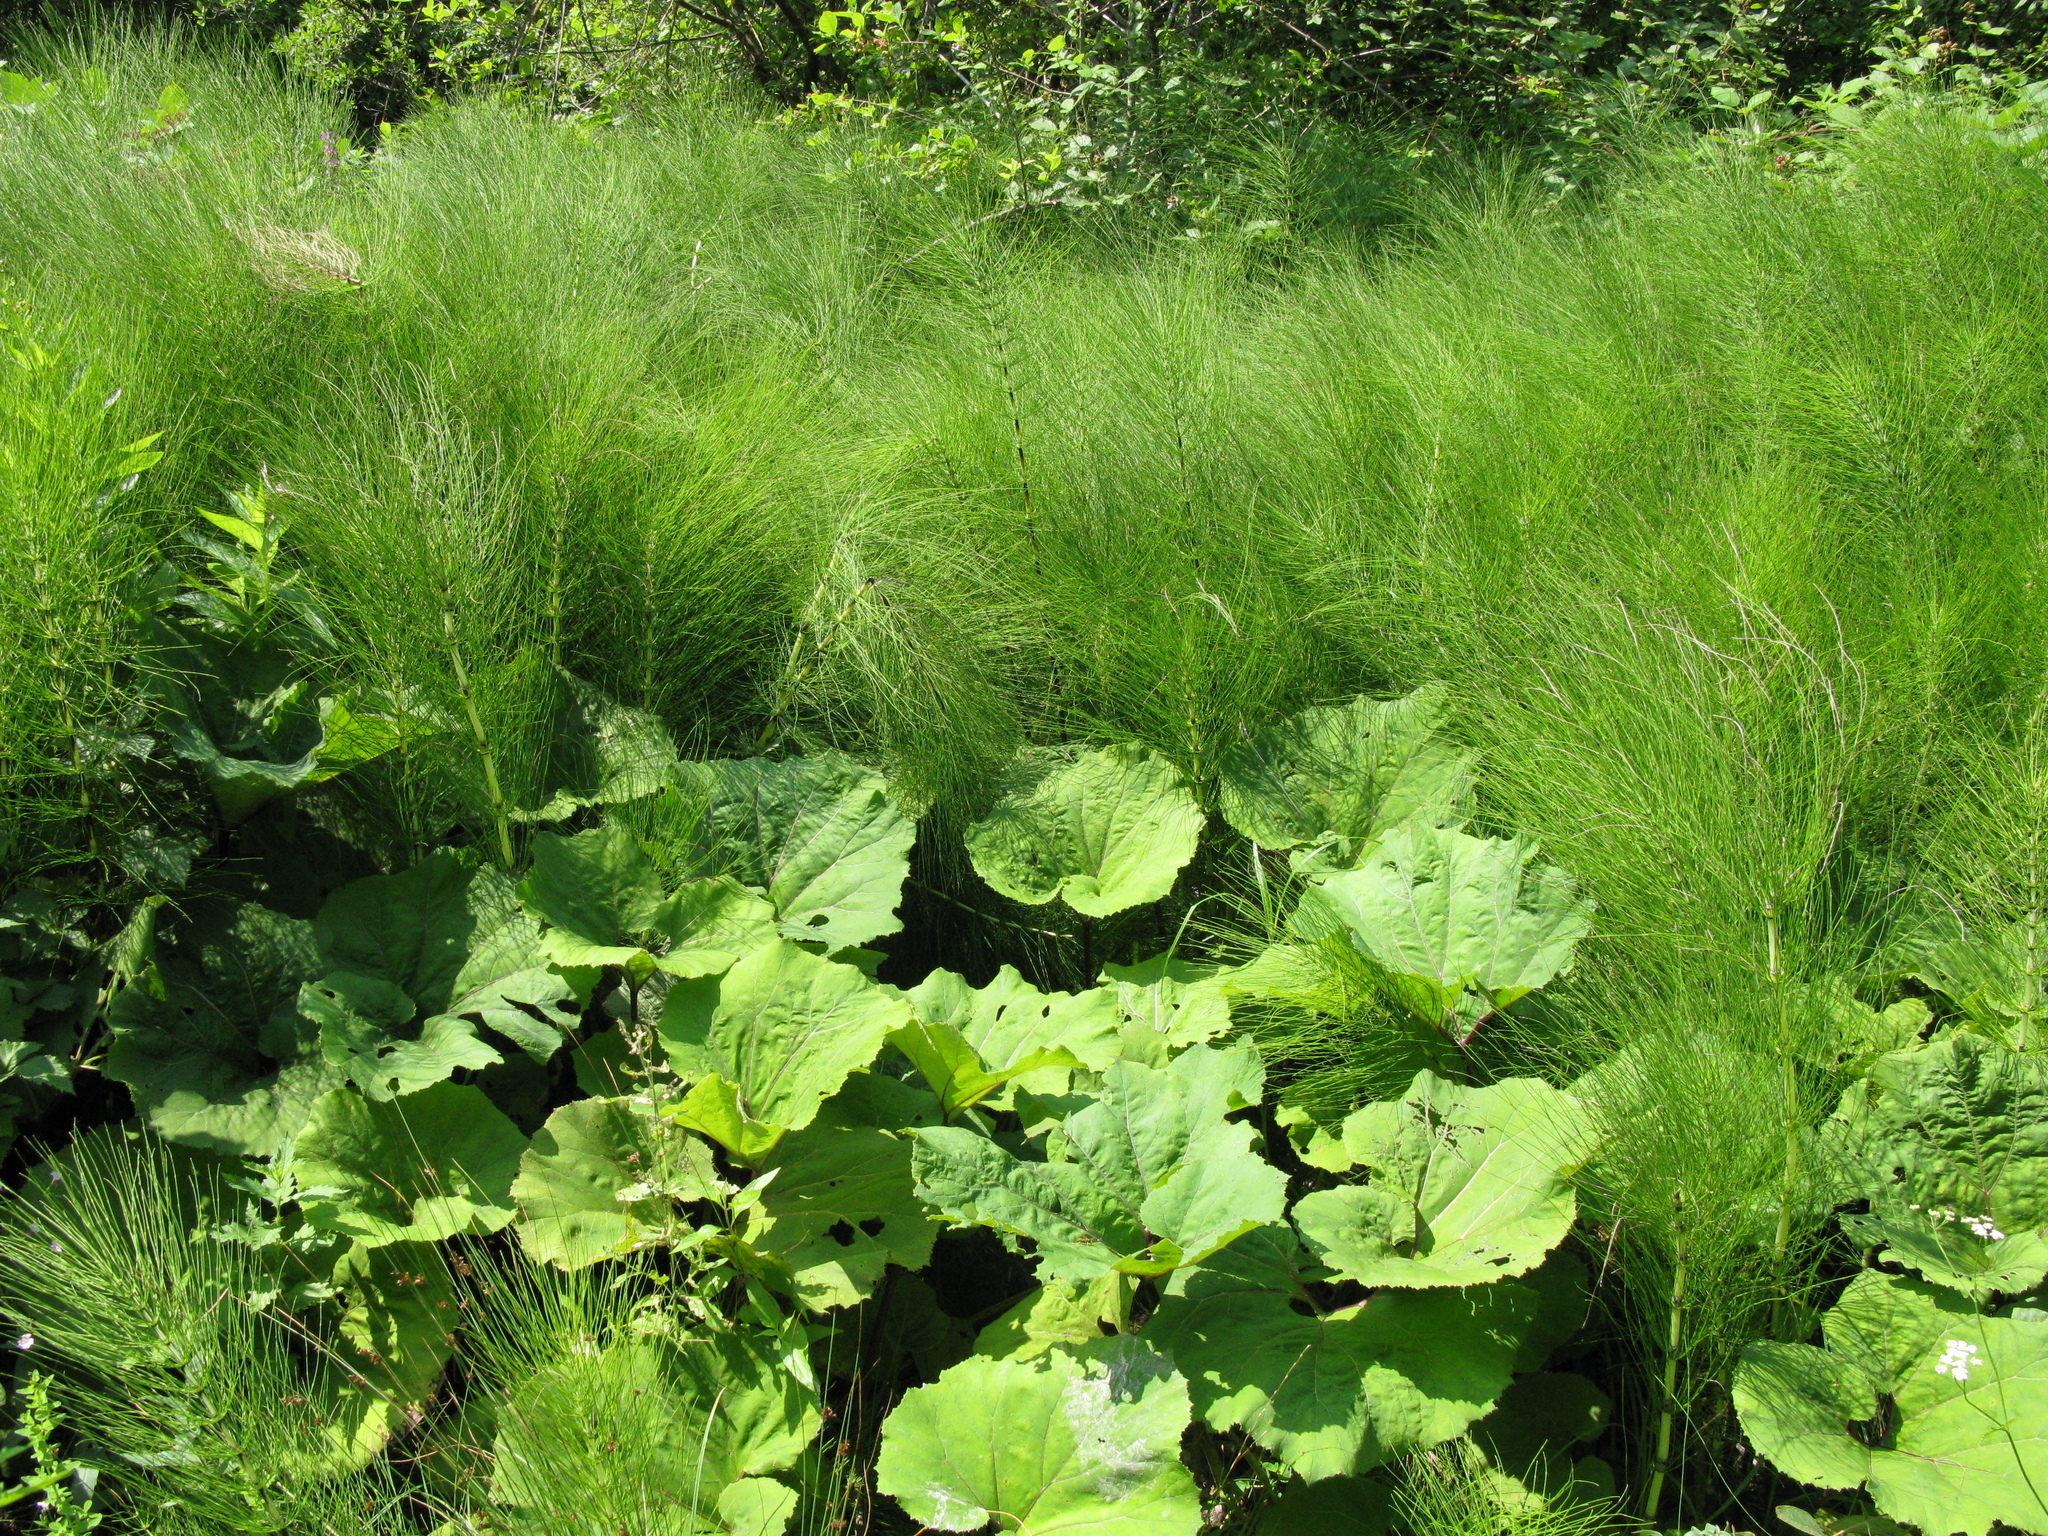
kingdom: Plantae
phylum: Tracheophyta
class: Polypodiopsida
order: Equisetales
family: Equisetaceae
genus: Equisetum
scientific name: Equisetum telmateia
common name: Great horsetail
